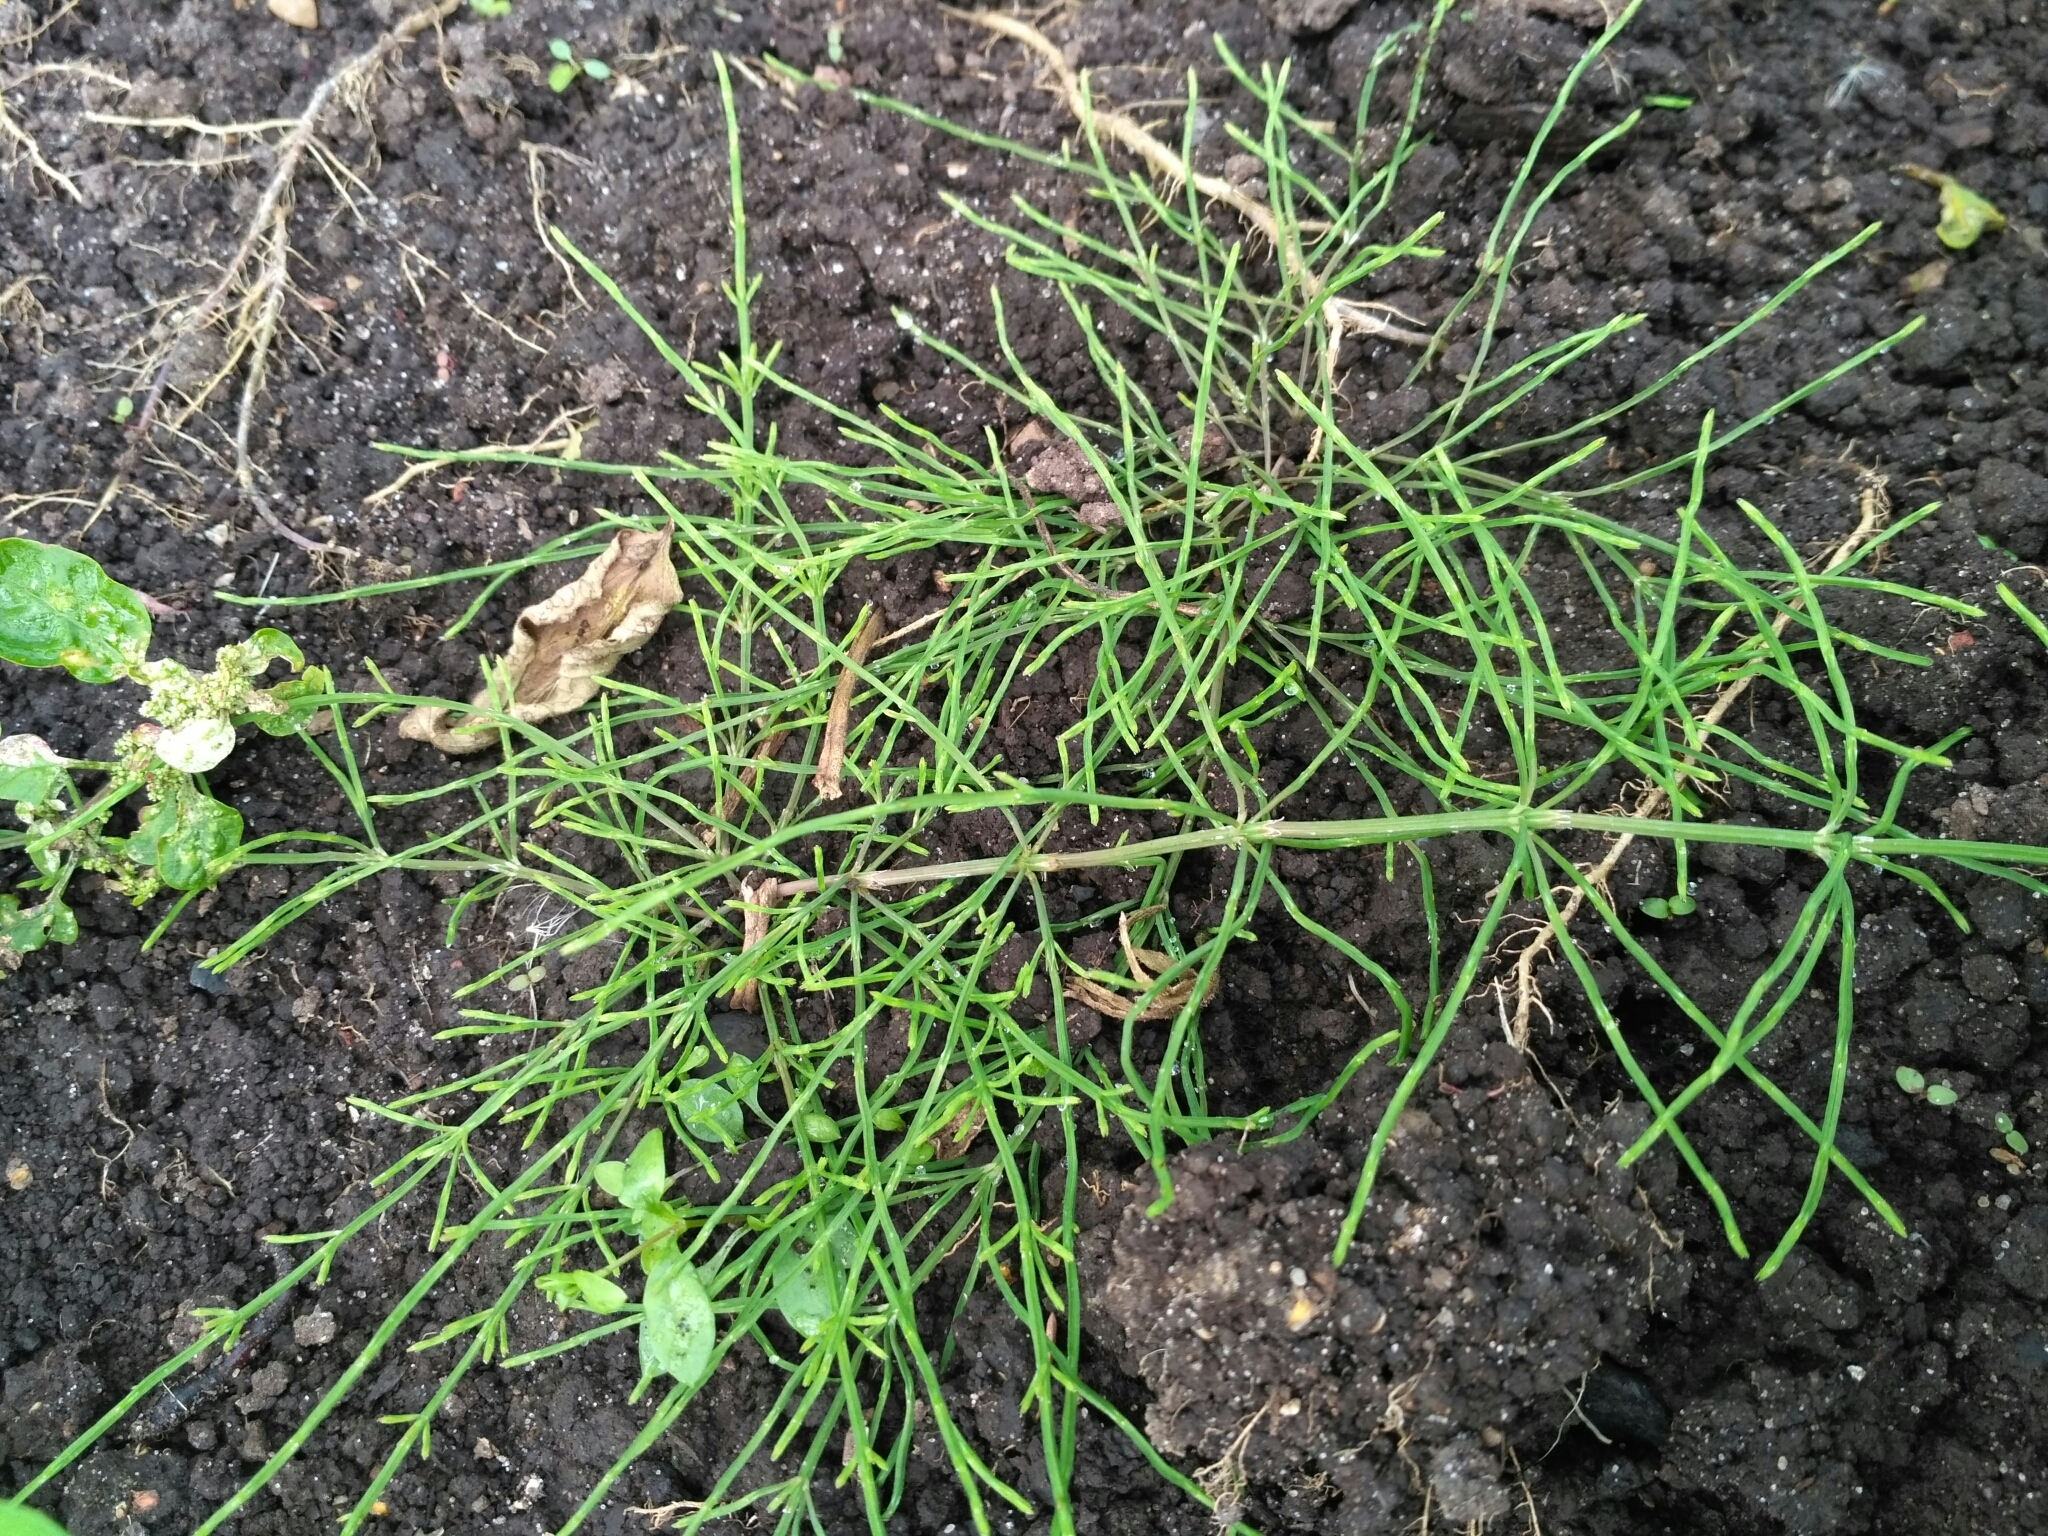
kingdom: Plantae
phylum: Tracheophyta
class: Polypodiopsida
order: Equisetales
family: Equisetaceae
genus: Equisetum
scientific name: Equisetum arvense
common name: Field horsetail
